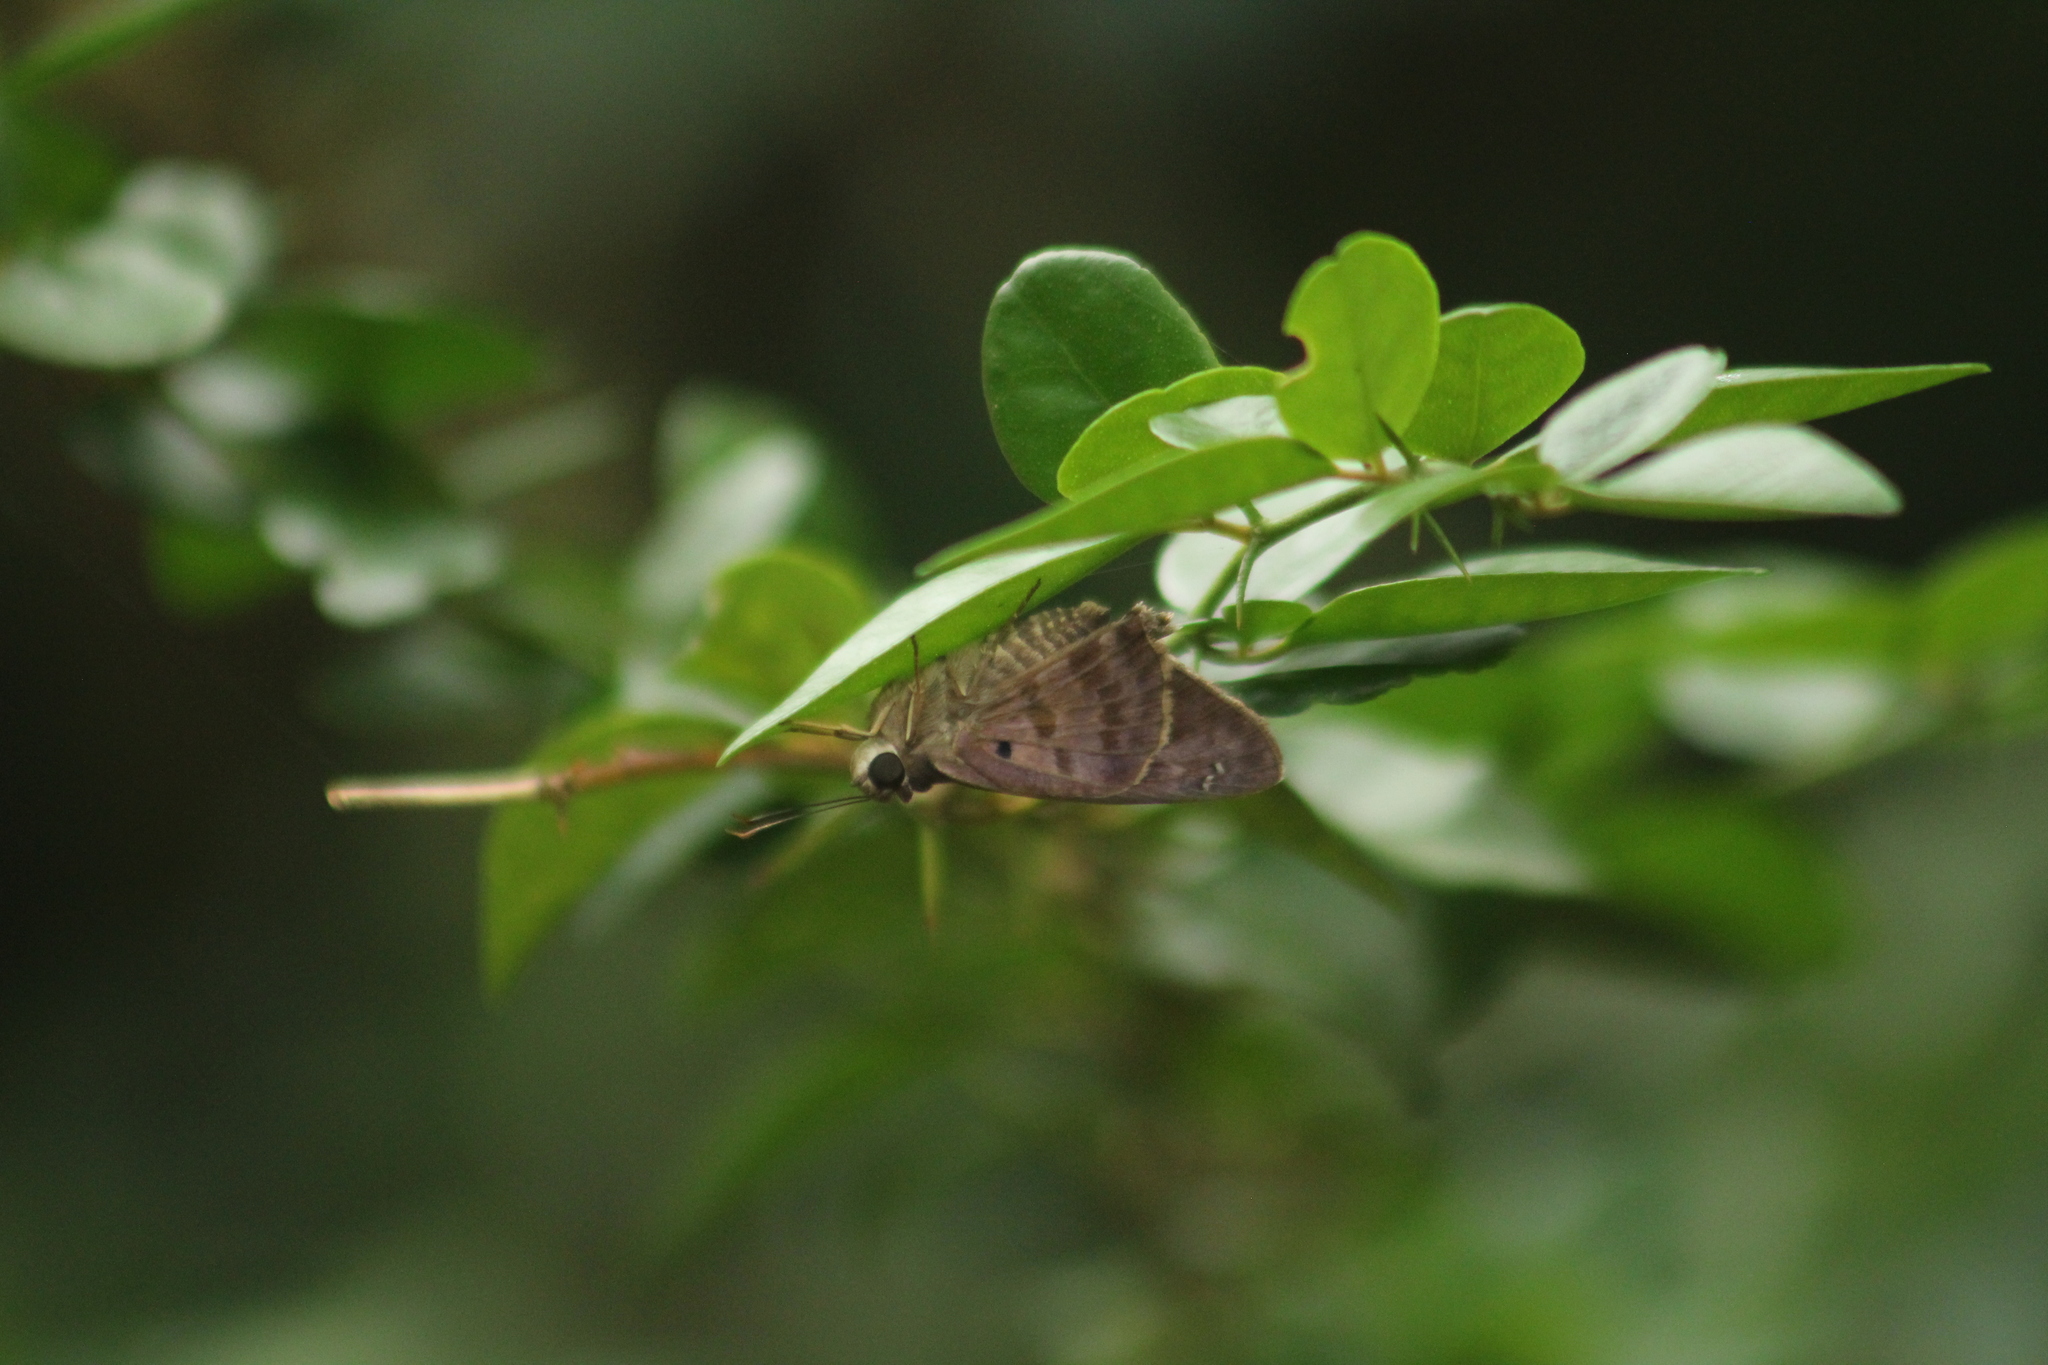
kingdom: Animalia
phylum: Arthropoda
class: Insecta
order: Lepidoptera
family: Hesperiidae
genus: Polygonus
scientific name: Polygonus leo
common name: Hammoch skipper
